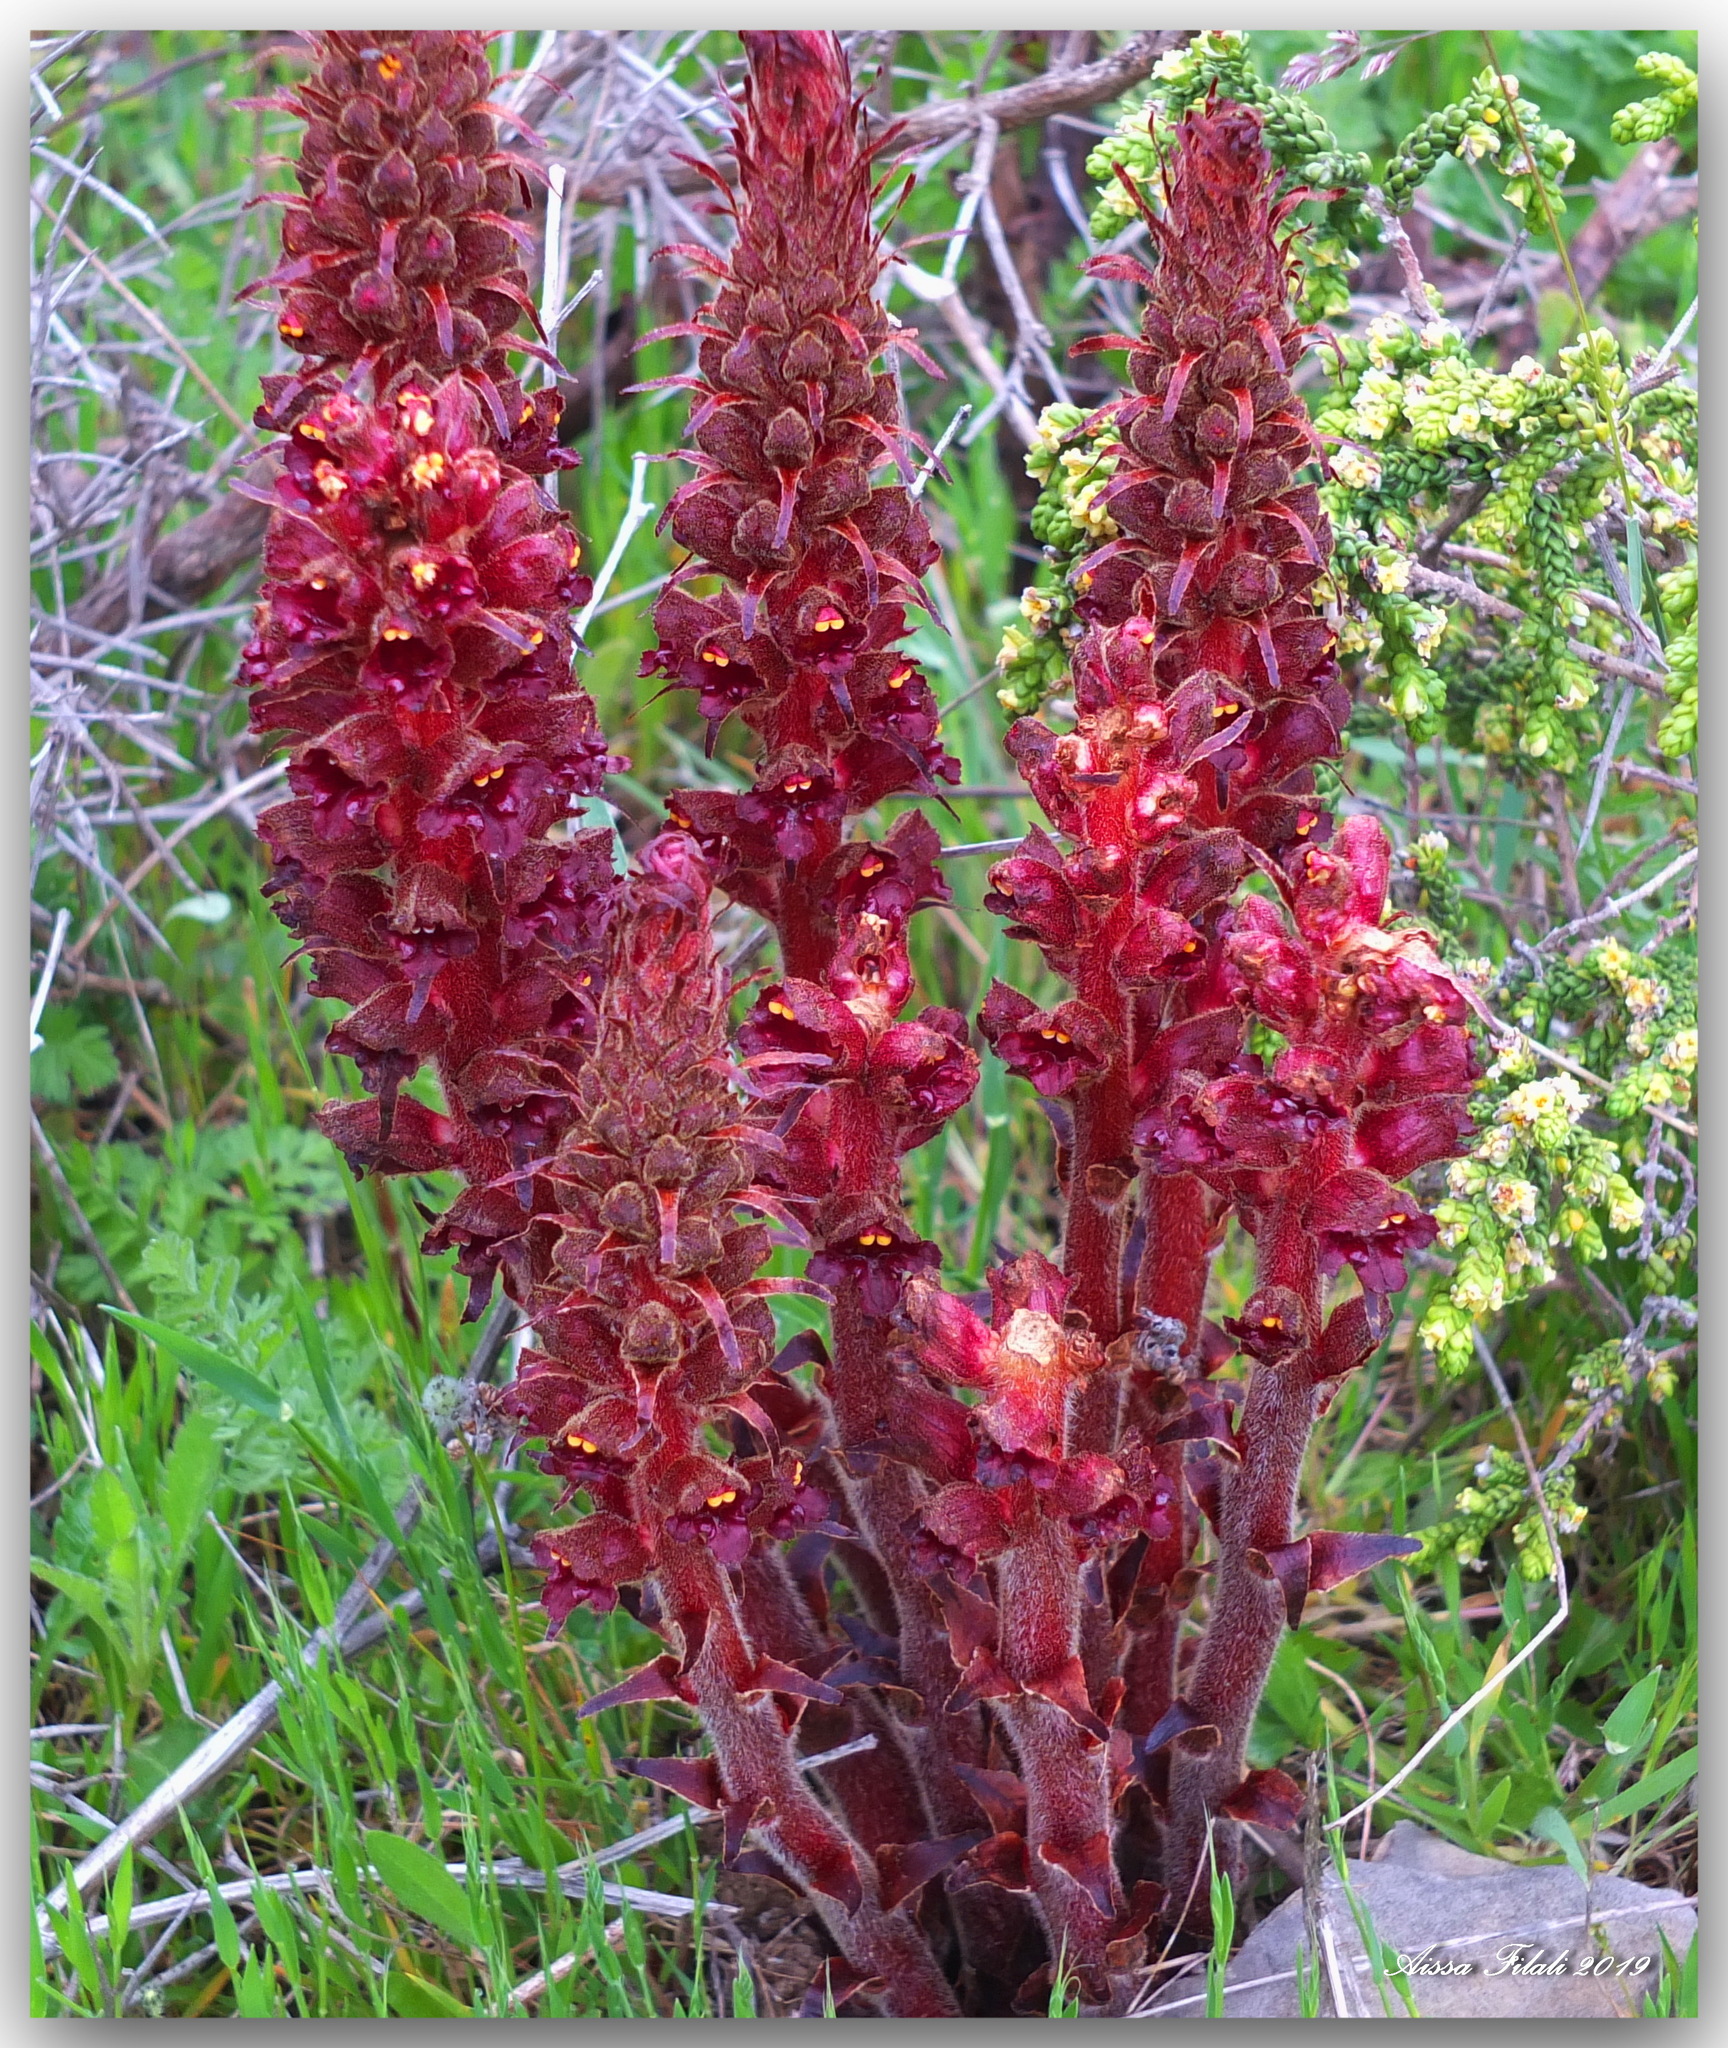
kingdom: Plantae
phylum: Tracheophyta
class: Magnoliopsida
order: Lamiales
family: Orobanchaceae
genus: Orobanche
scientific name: Orobanche variegata
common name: Variegated broomrape
